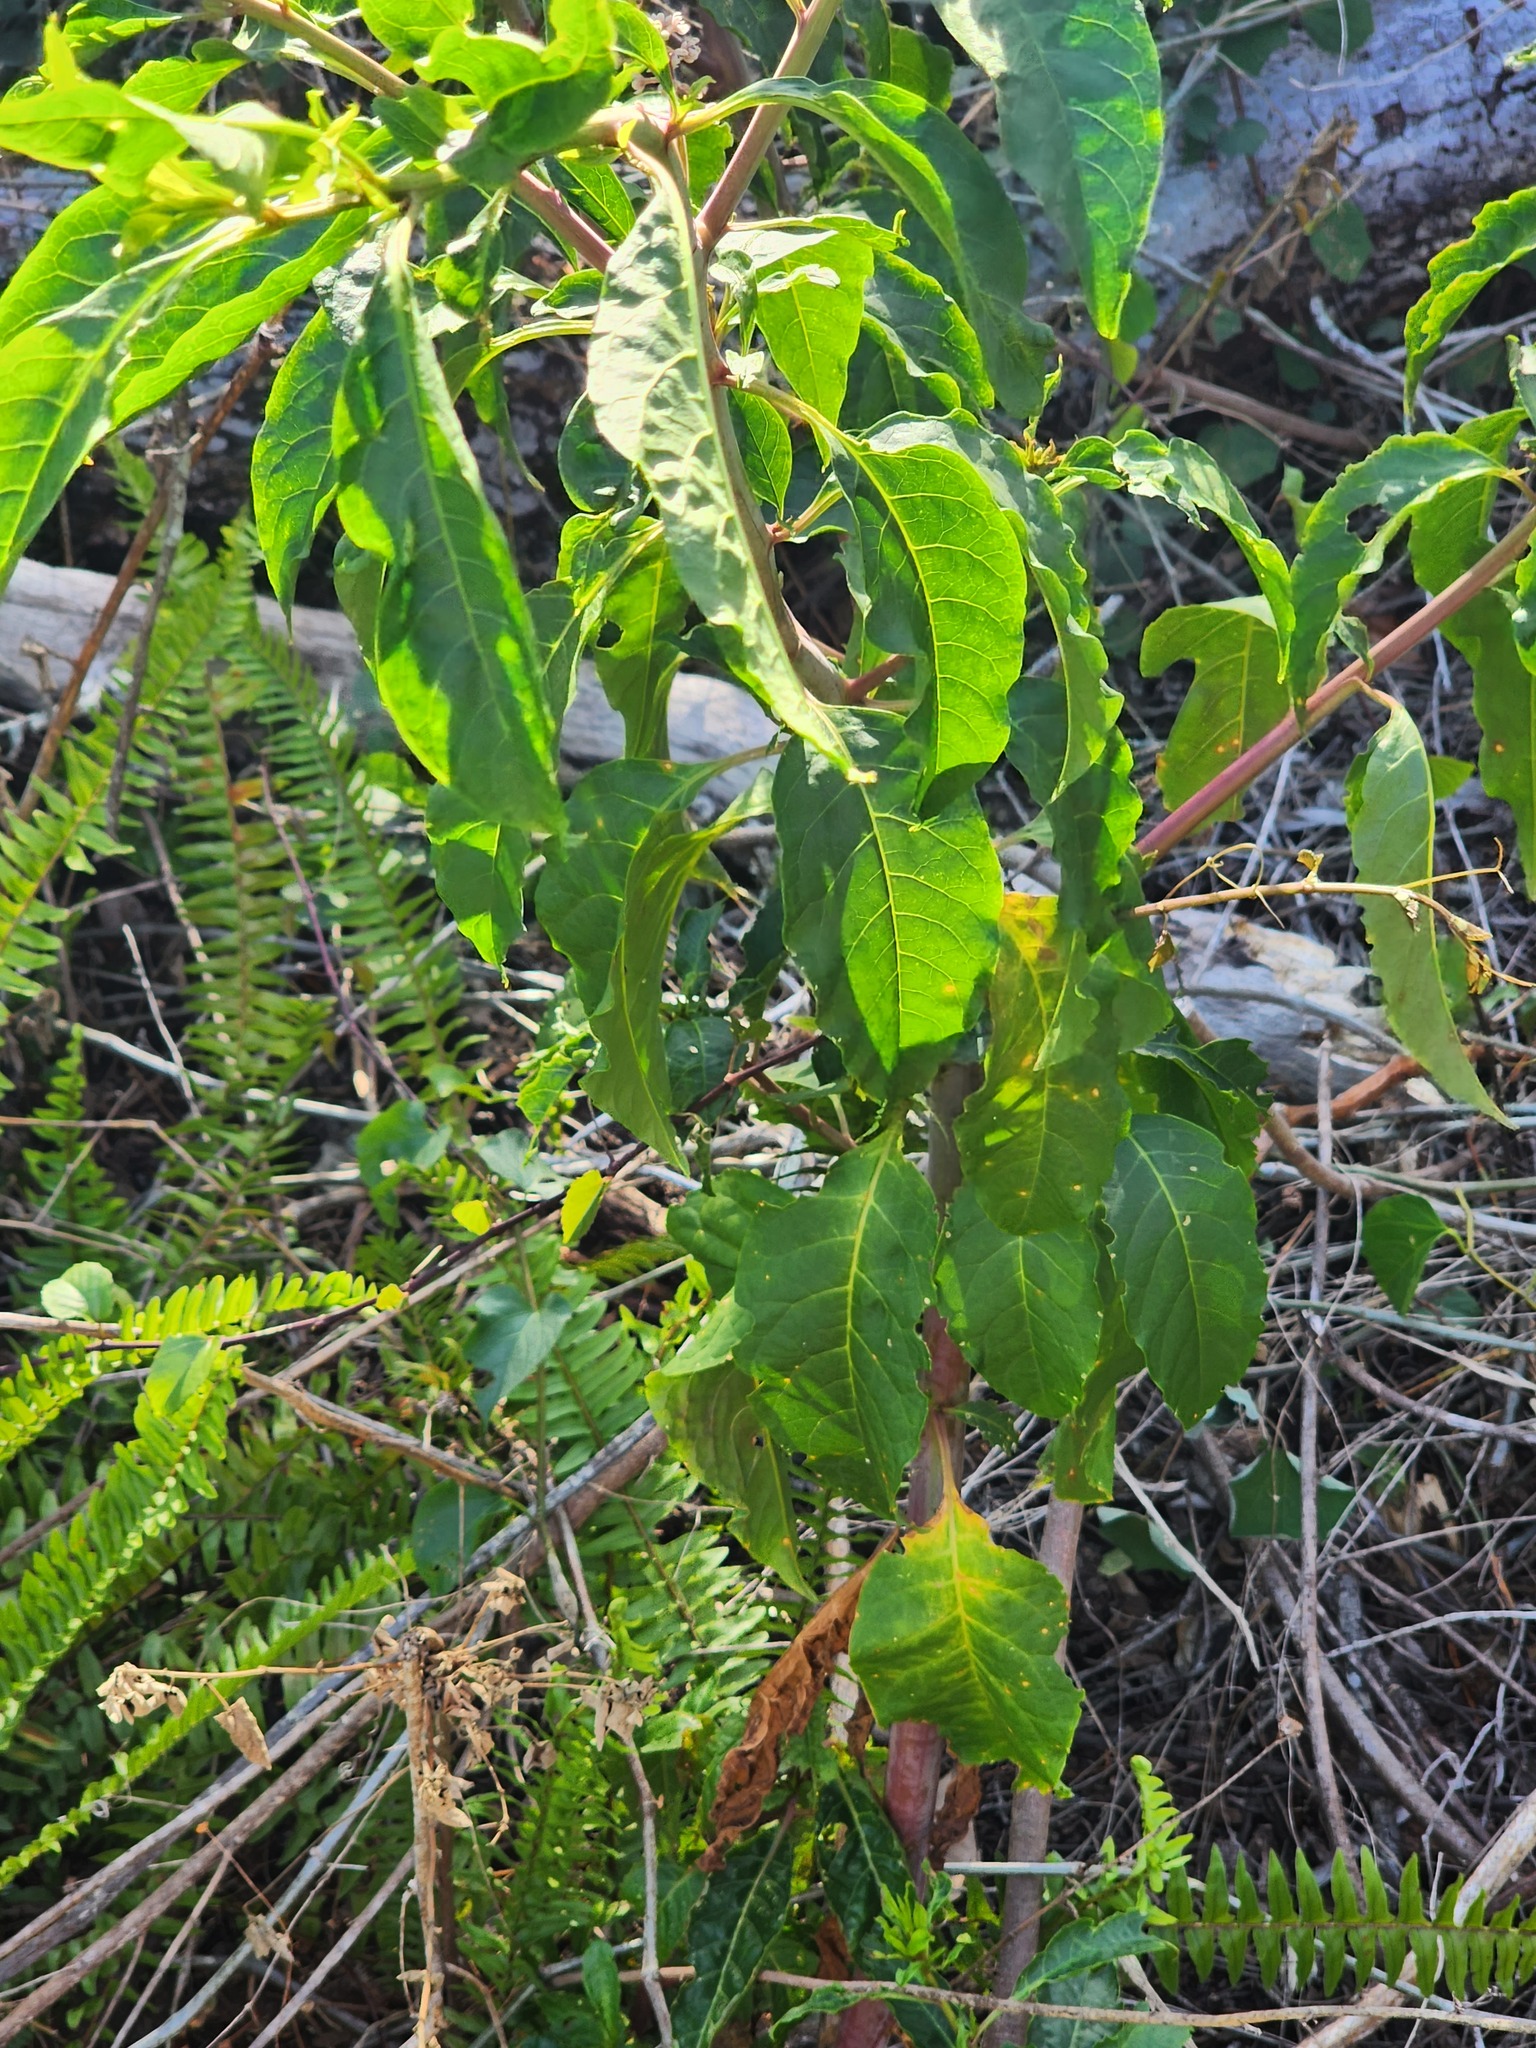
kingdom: Plantae
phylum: Tracheophyta
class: Magnoliopsida
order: Caryophyllales
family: Phytolaccaceae
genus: Phytolacca
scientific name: Phytolacca americana
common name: American pokeweed
